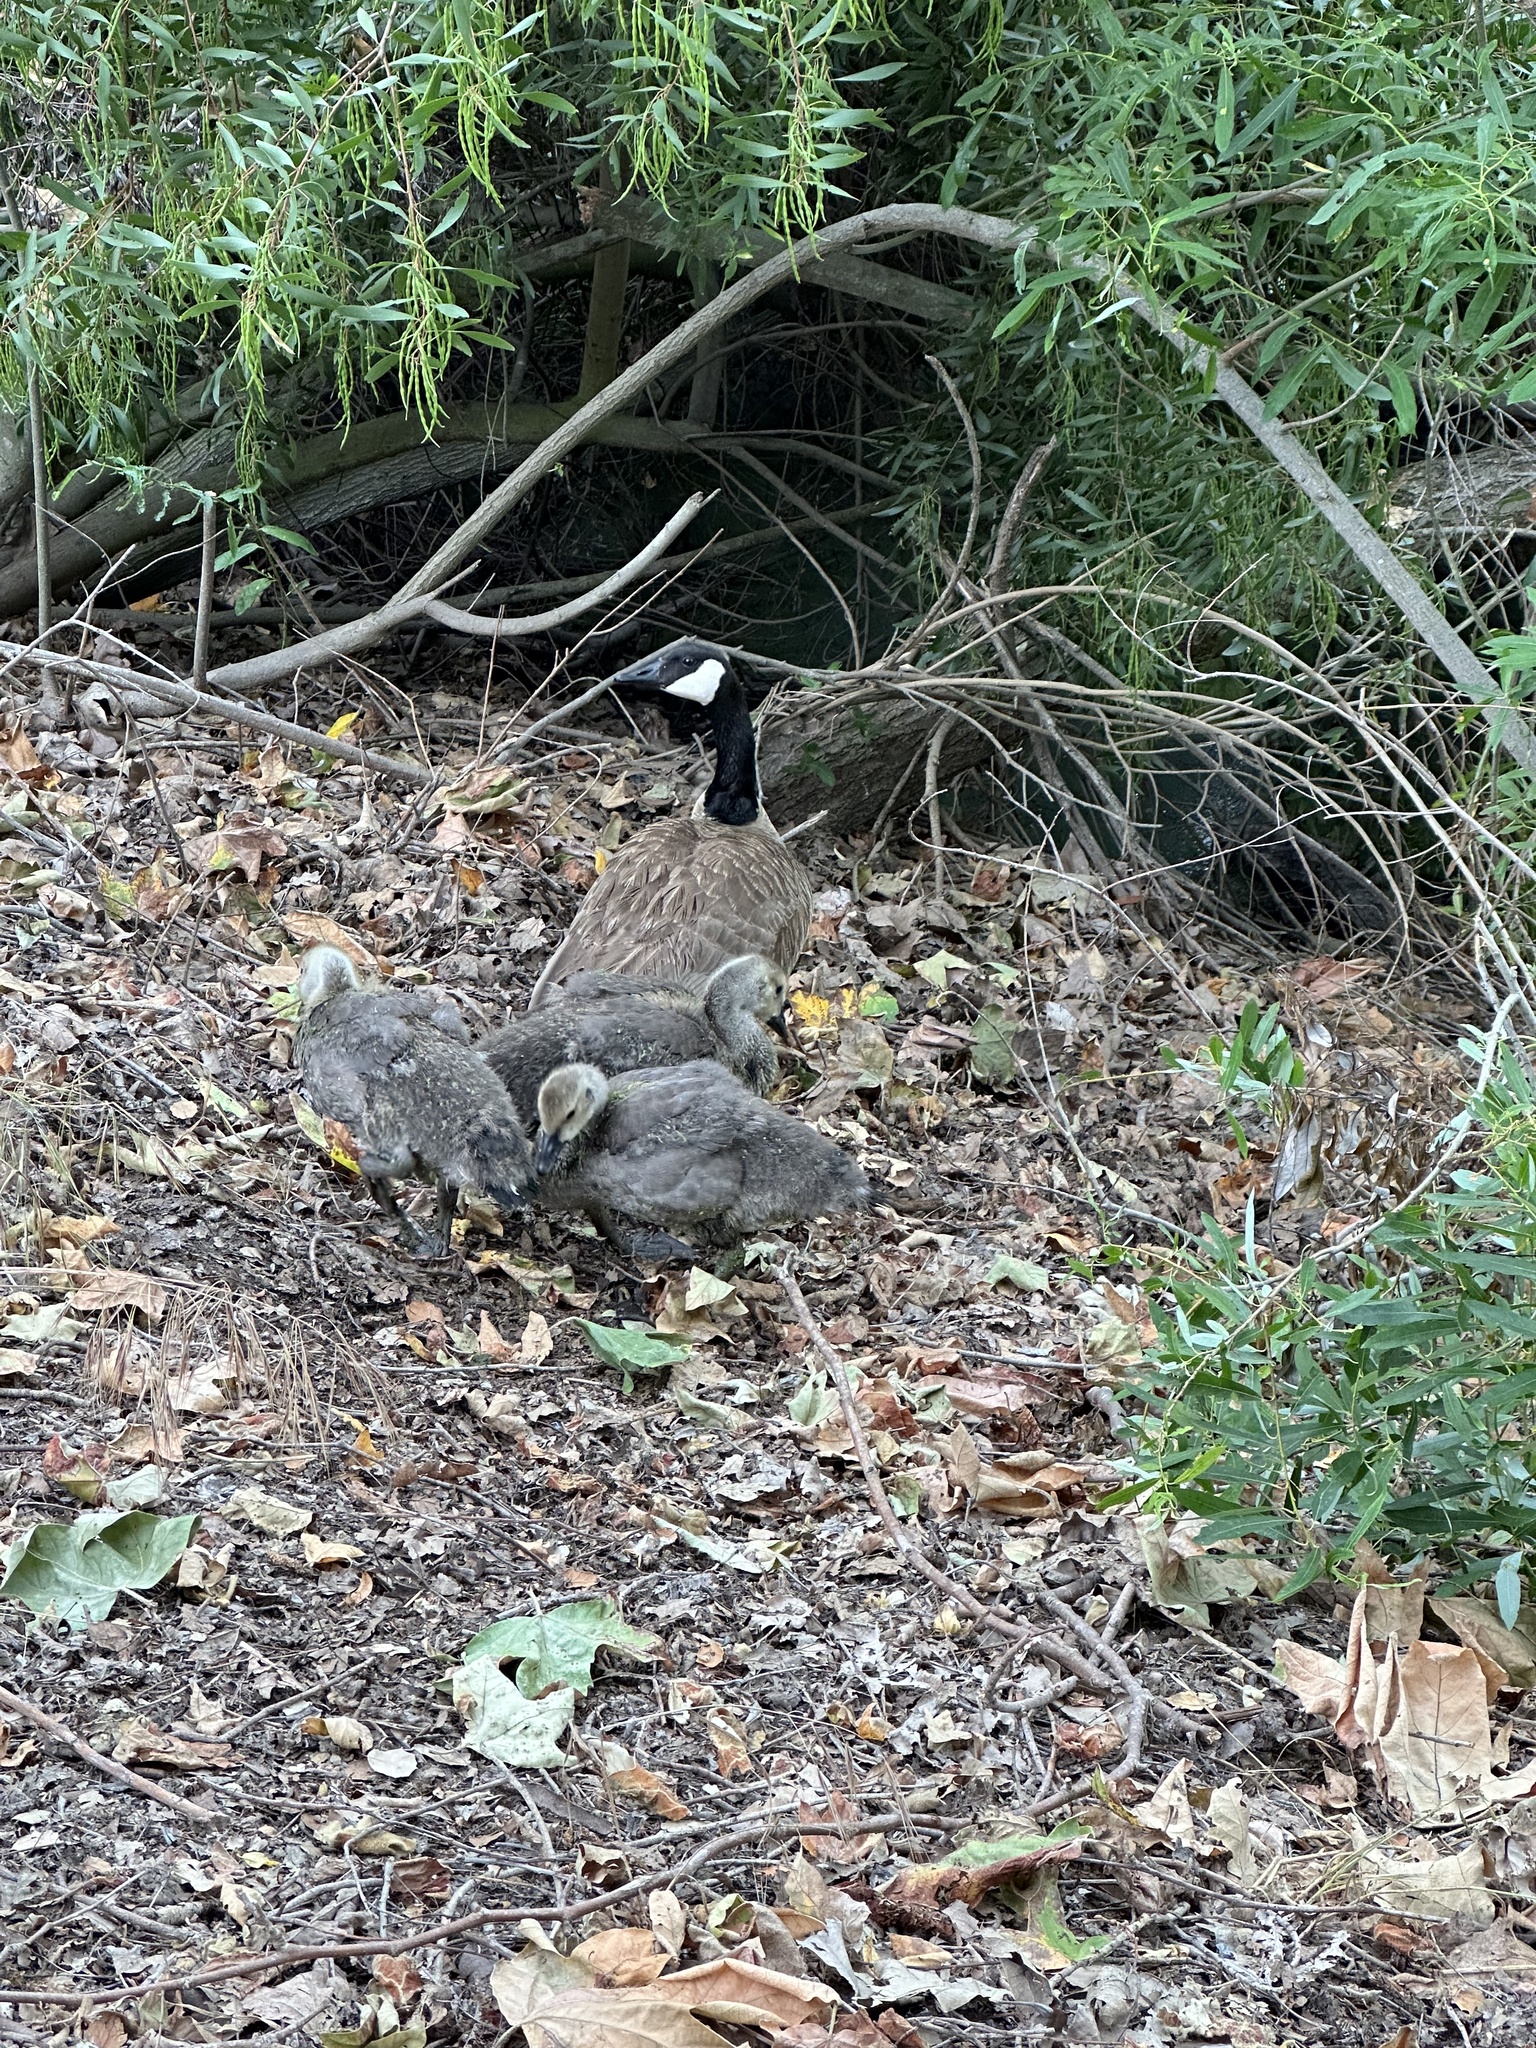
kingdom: Animalia
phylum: Chordata
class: Aves
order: Anseriformes
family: Anatidae
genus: Branta
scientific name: Branta canadensis
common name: Canada goose
